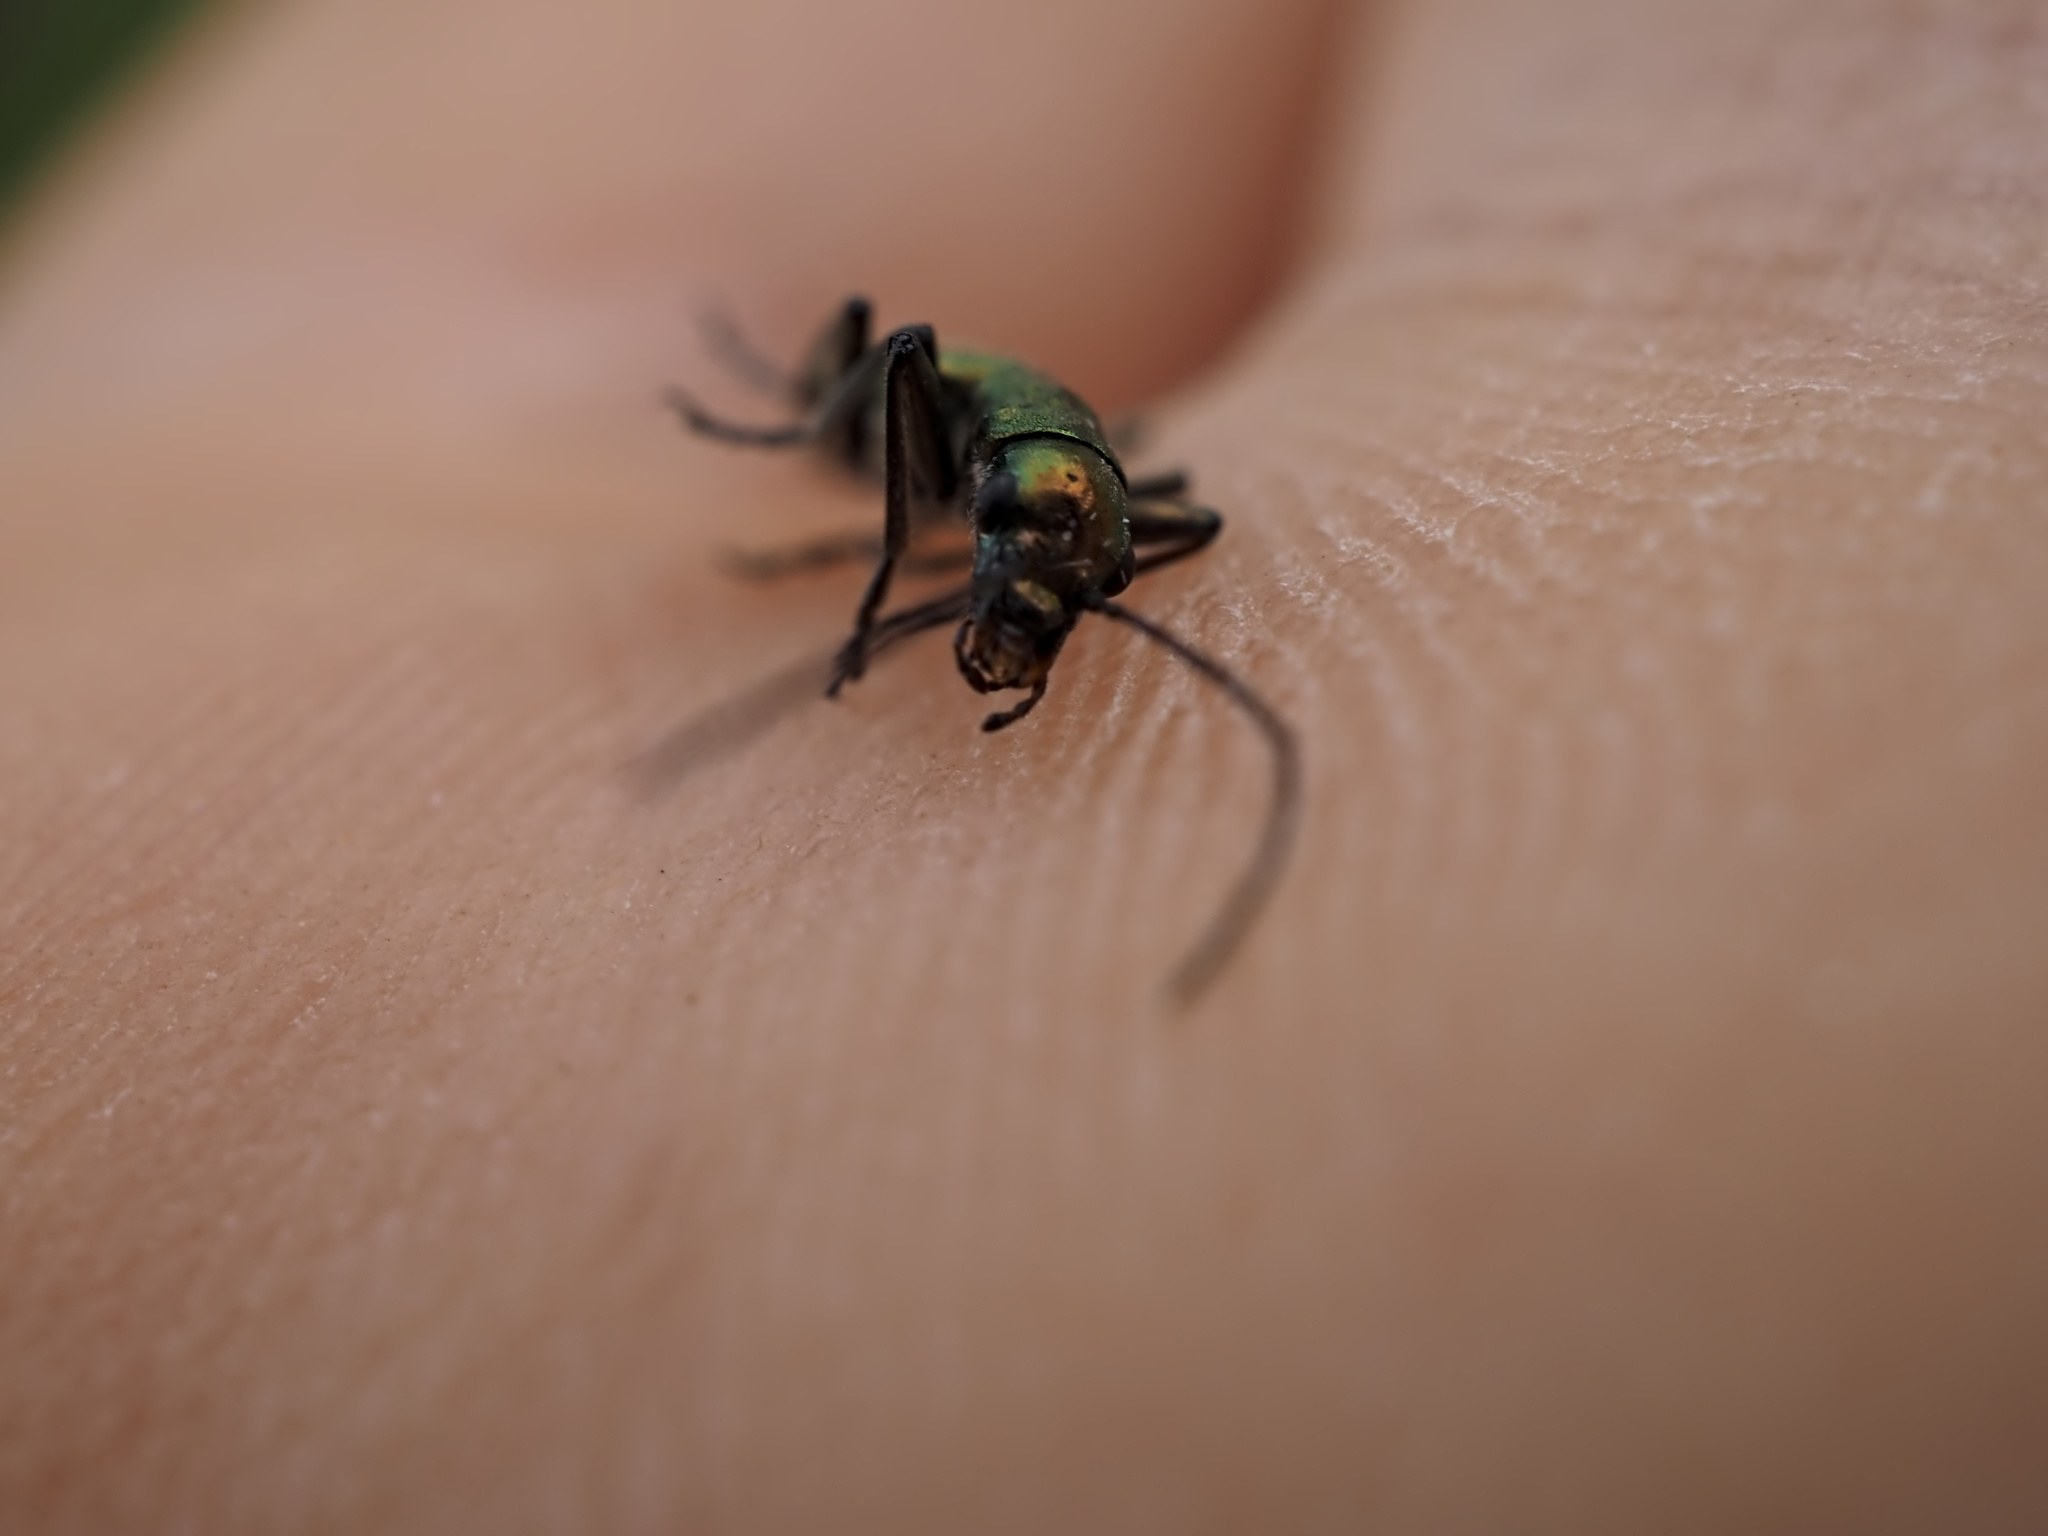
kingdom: Animalia
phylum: Arthropoda
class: Insecta
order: Coleoptera
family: Oedemeridae
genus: Chrysanthia
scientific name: Chrysanthia viridissima
